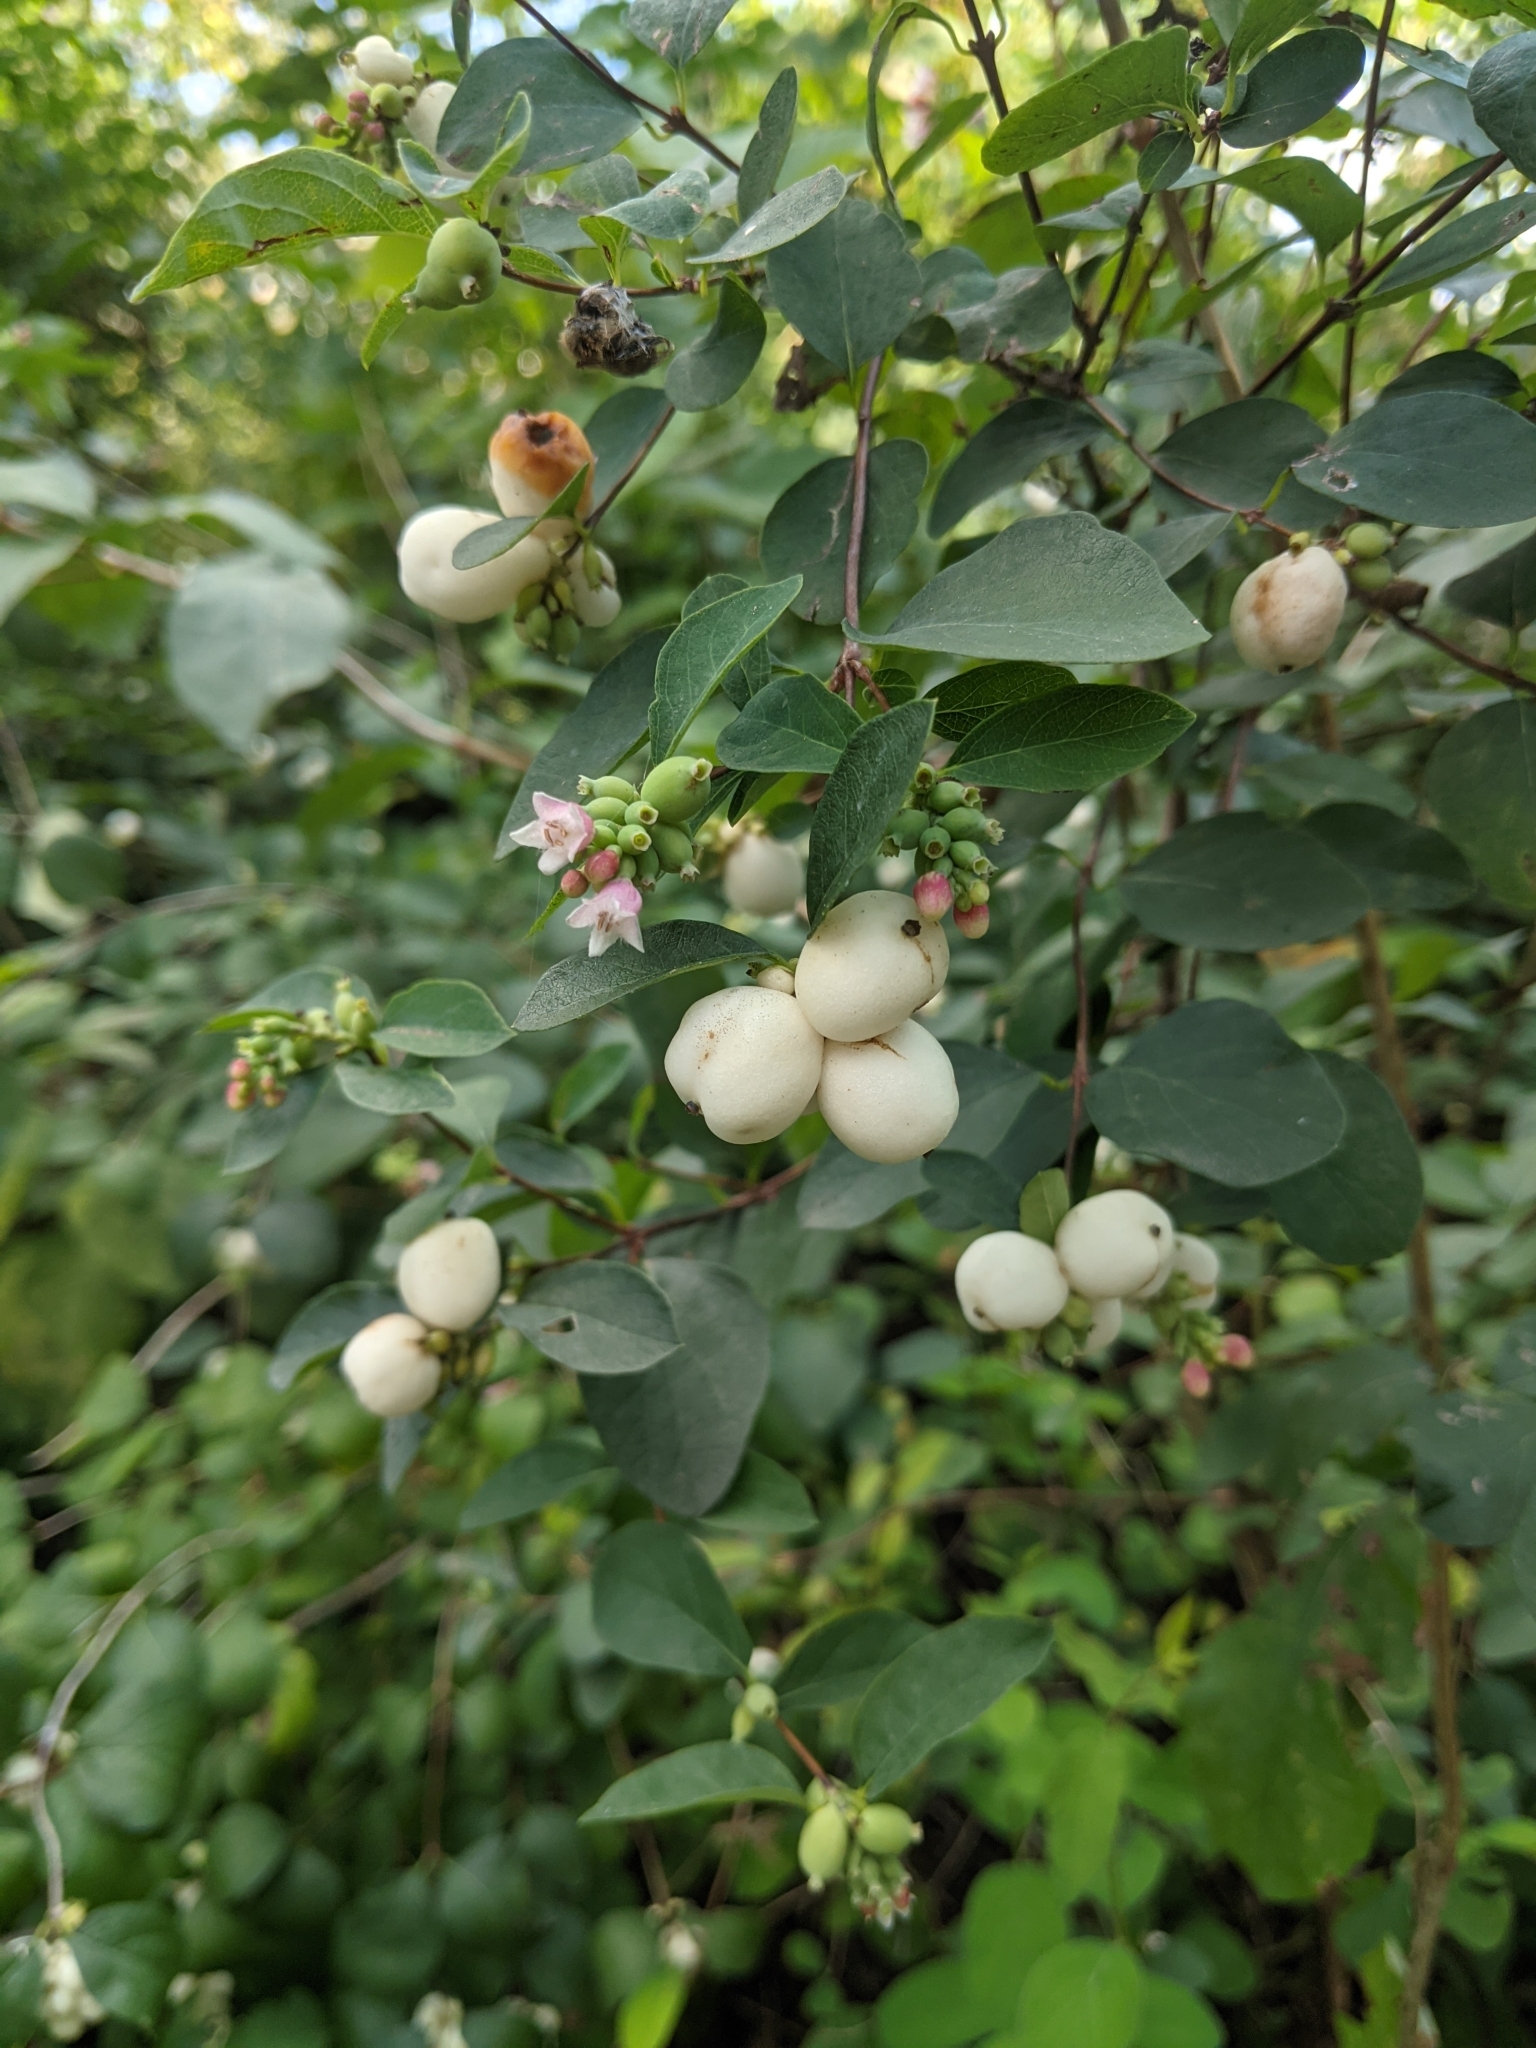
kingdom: Plantae
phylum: Tracheophyta
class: Magnoliopsida
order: Dipsacales
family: Caprifoliaceae
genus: Symphoricarpos
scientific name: Symphoricarpos albus
